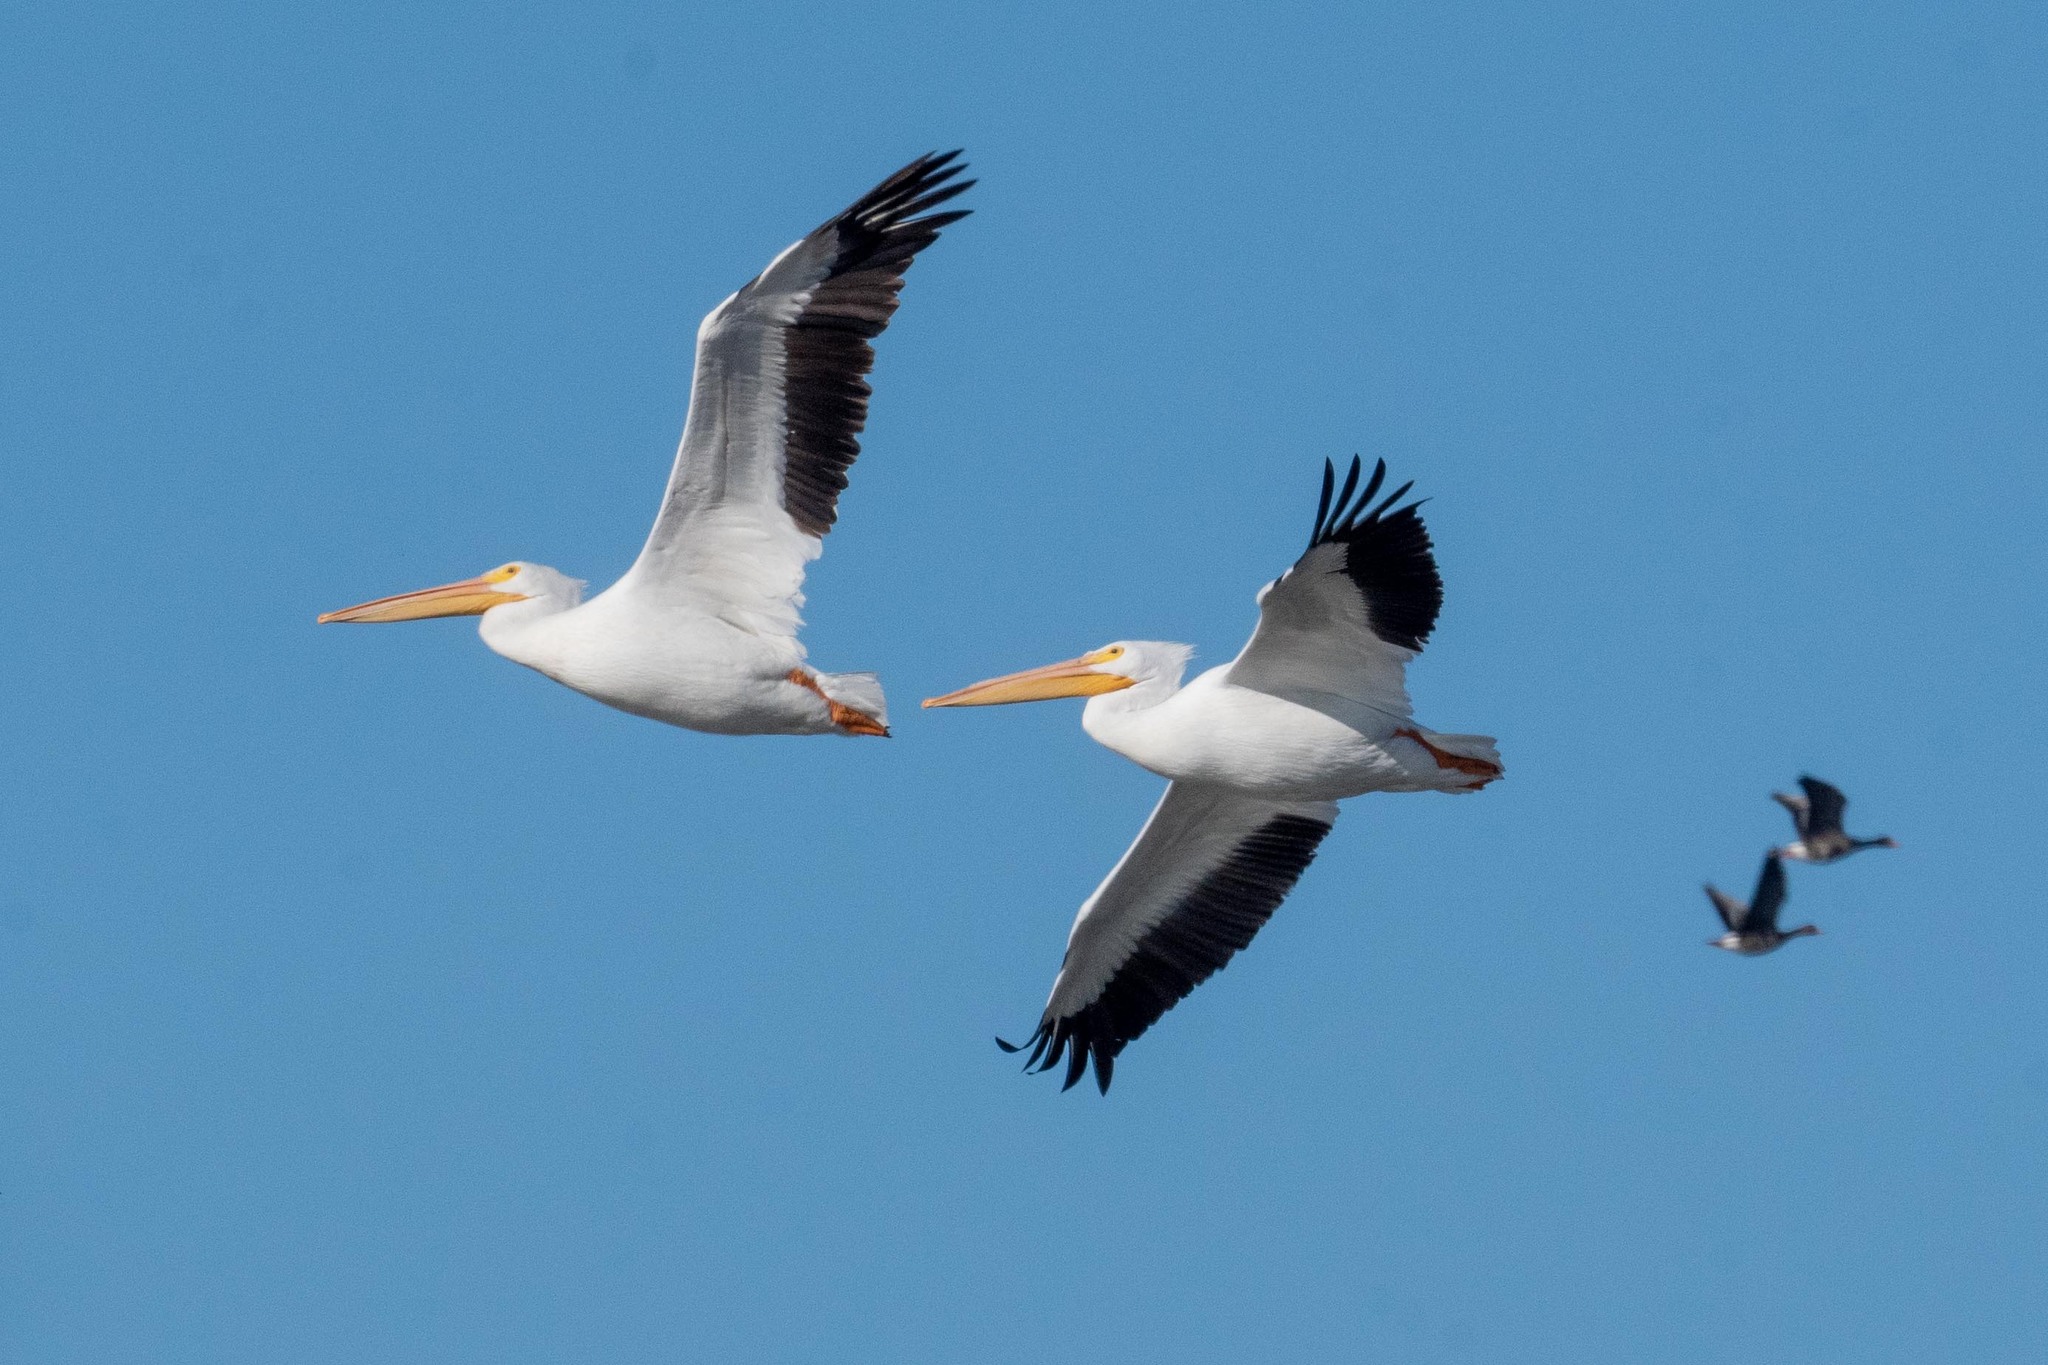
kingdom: Animalia
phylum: Chordata
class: Aves
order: Pelecaniformes
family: Pelecanidae
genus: Pelecanus
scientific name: Pelecanus erythrorhynchos
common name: American white pelican
